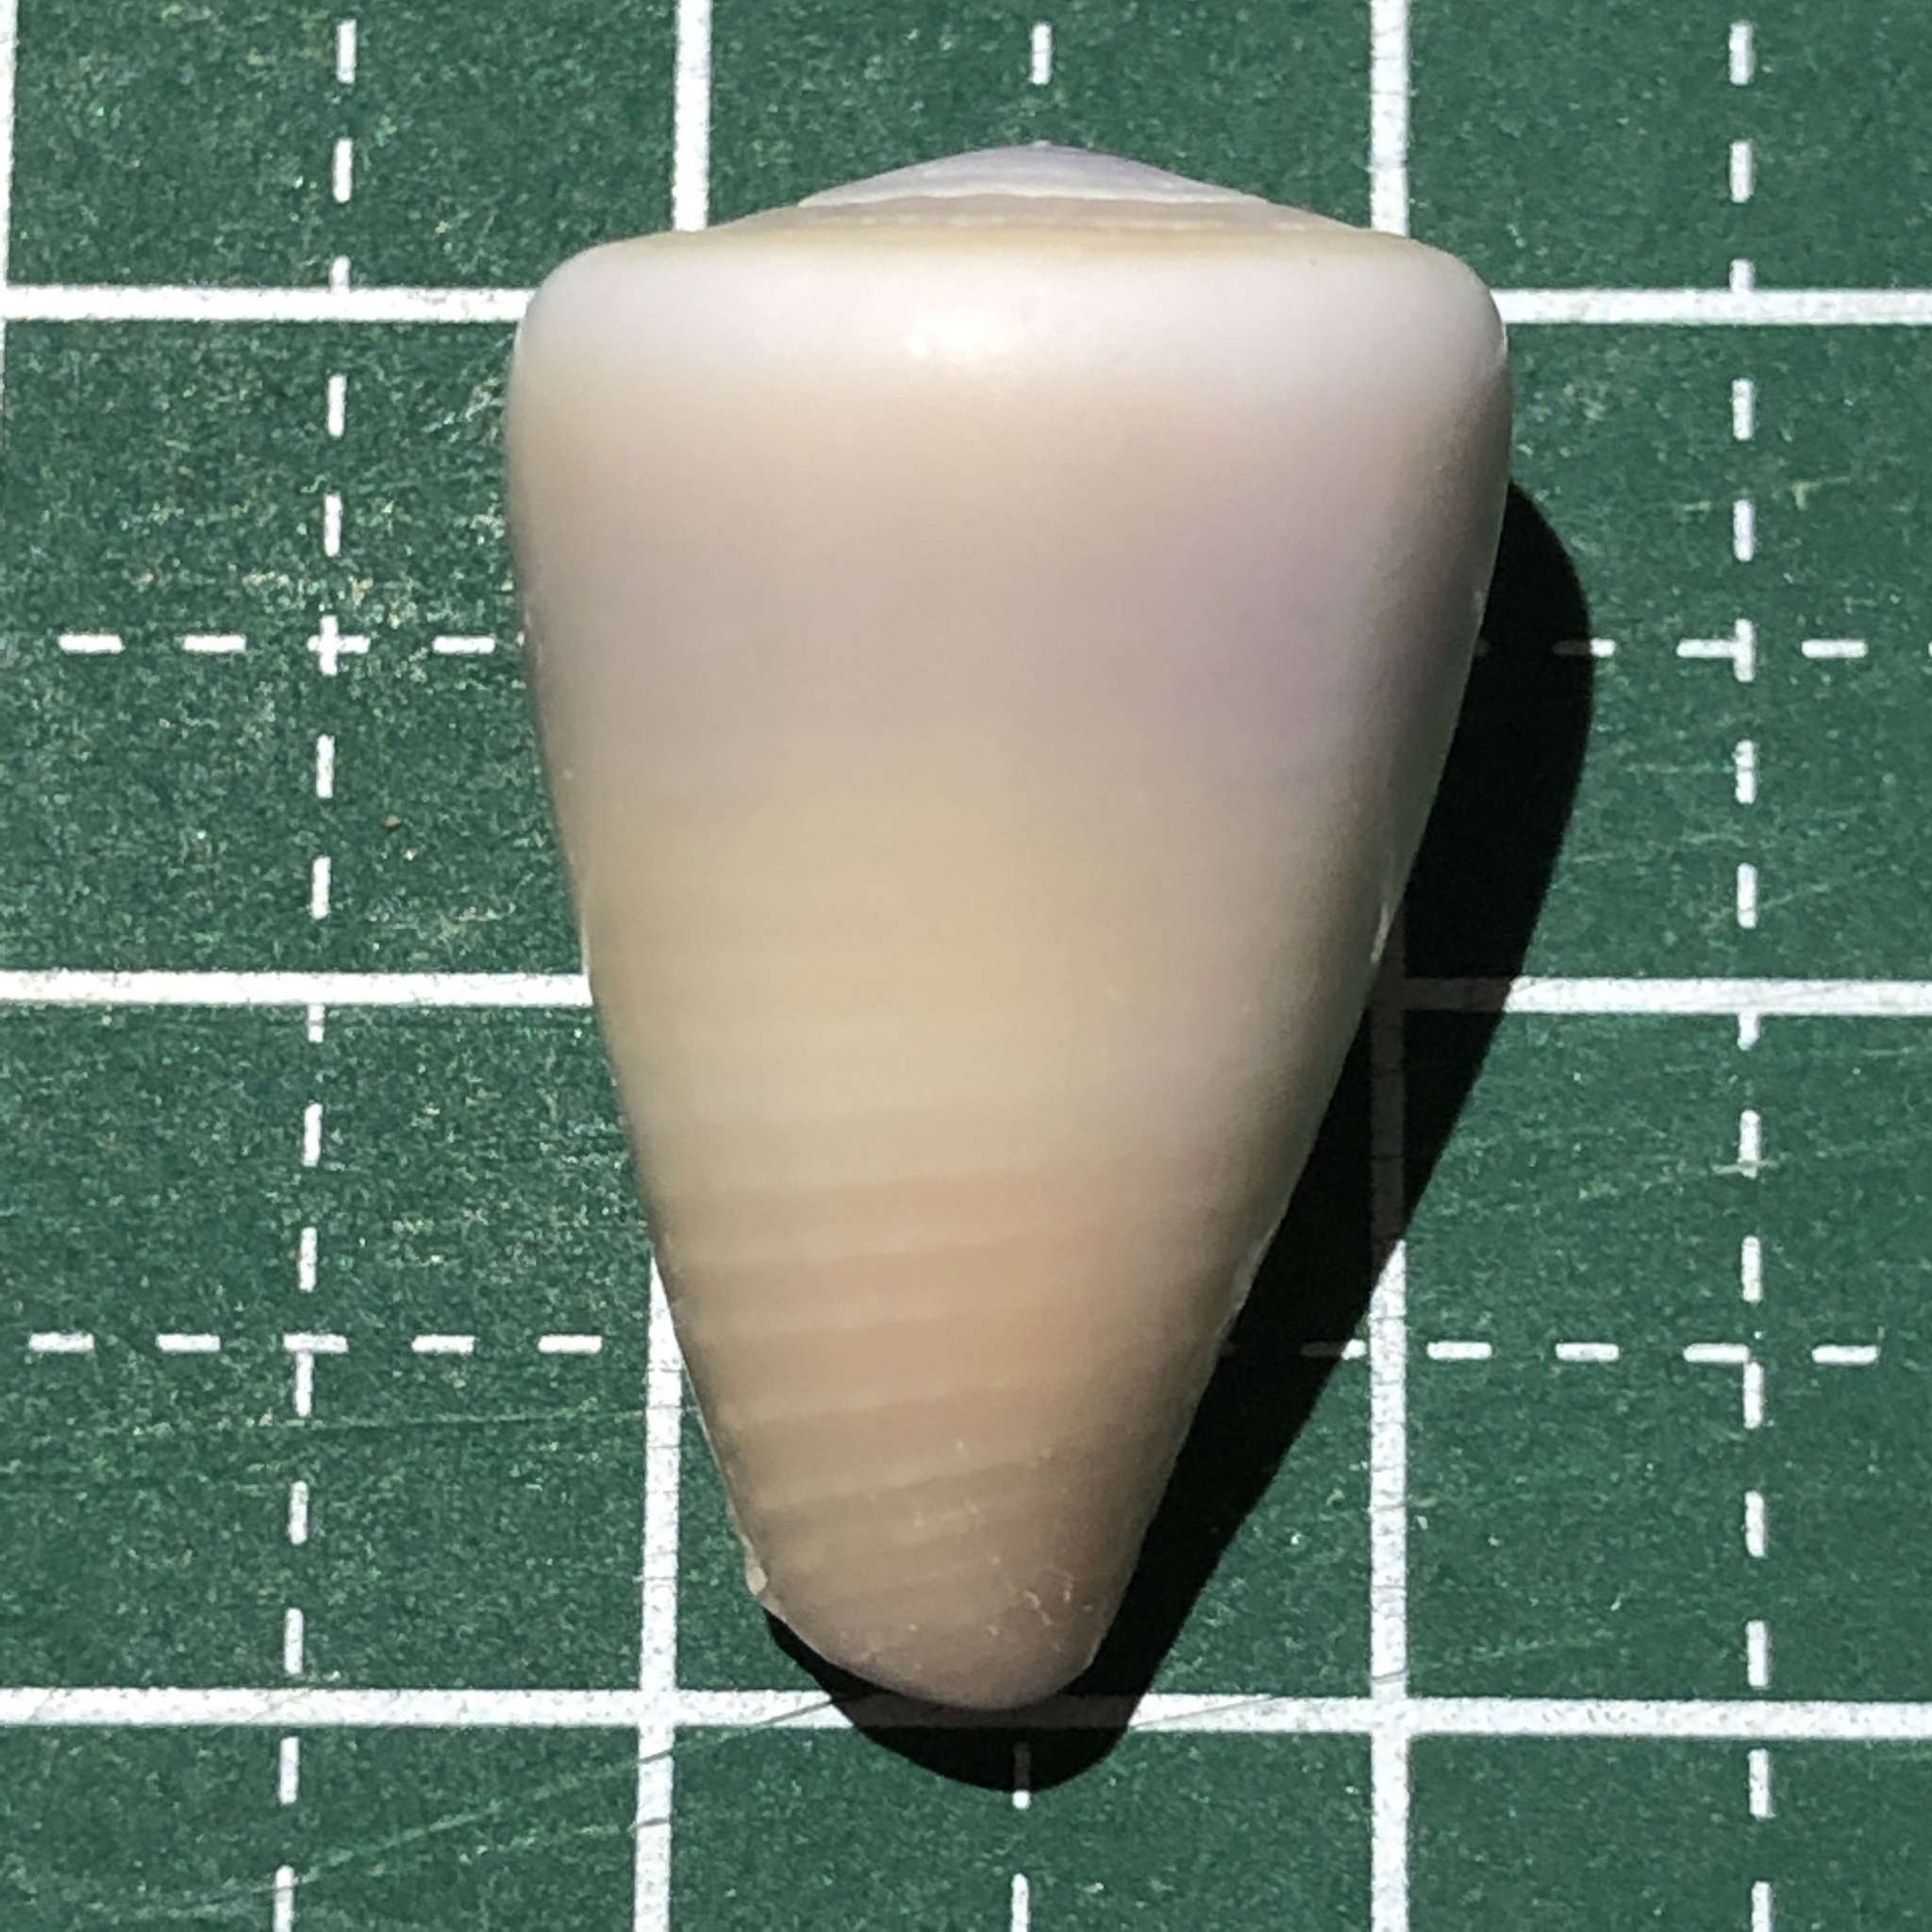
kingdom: Animalia
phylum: Mollusca
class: Gastropoda
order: Neogastropoda
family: Conidae
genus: Conus
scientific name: Conus flavidus
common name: Golden-yellow cone
